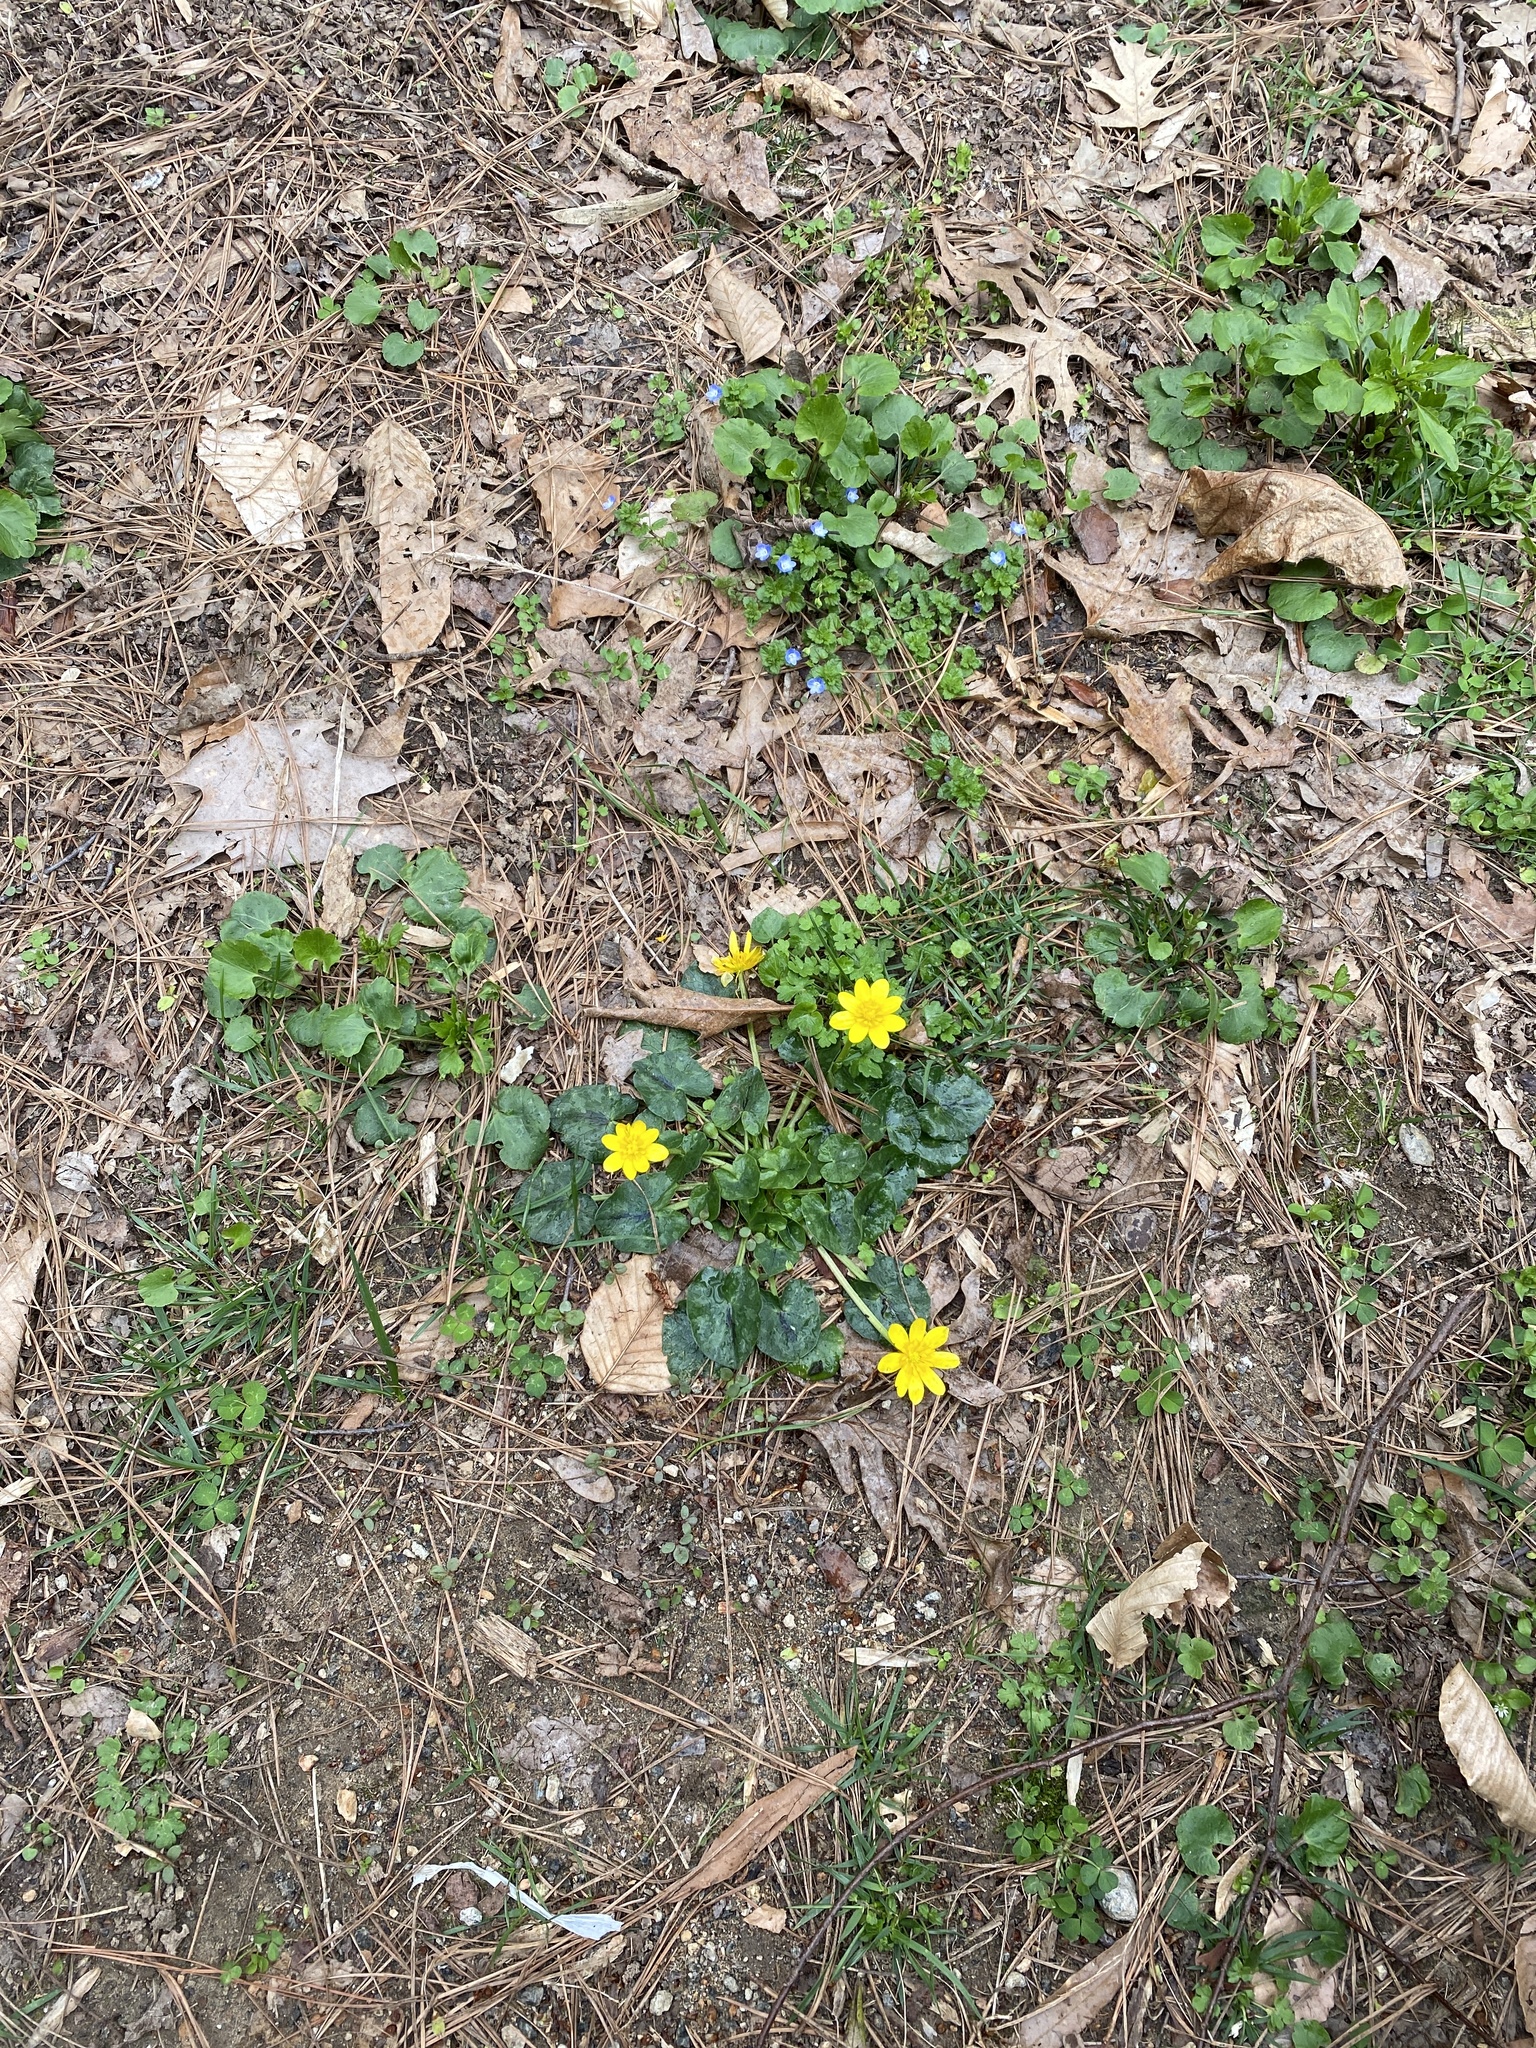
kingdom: Plantae
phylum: Tracheophyta
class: Magnoliopsida
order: Ranunculales
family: Ranunculaceae
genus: Ficaria
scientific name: Ficaria verna
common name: Lesser celandine
